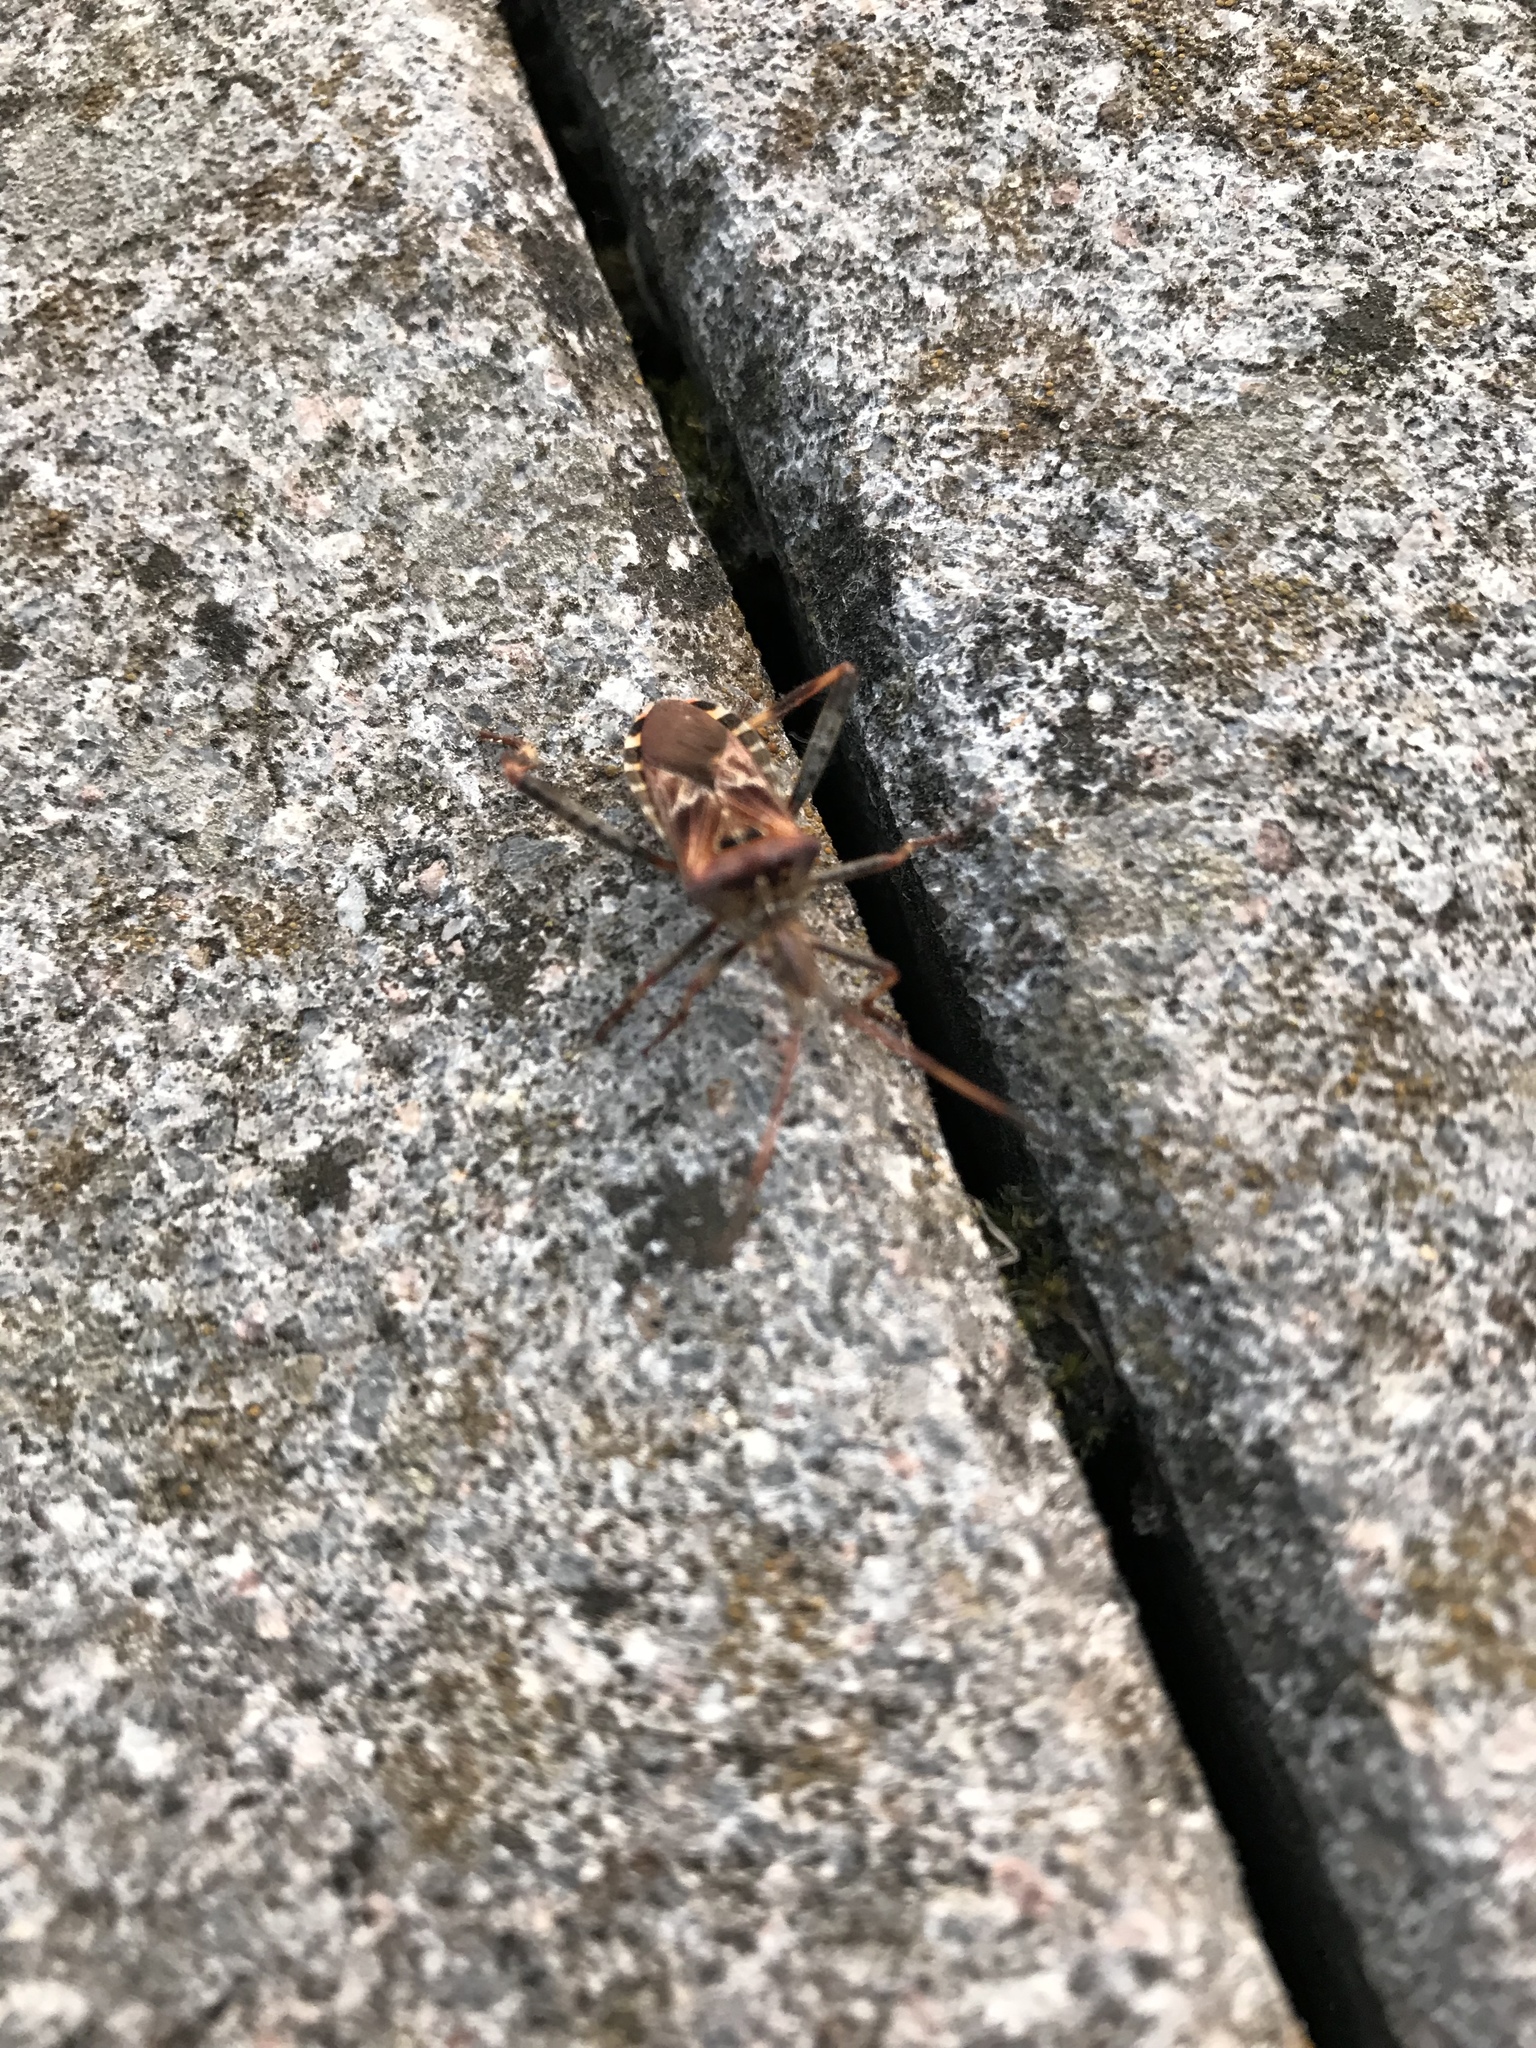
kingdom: Animalia
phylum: Arthropoda
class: Insecta
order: Hemiptera
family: Coreidae
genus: Leptoglossus
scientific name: Leptoglossus occidentalis
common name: Western conifer-seed bug
